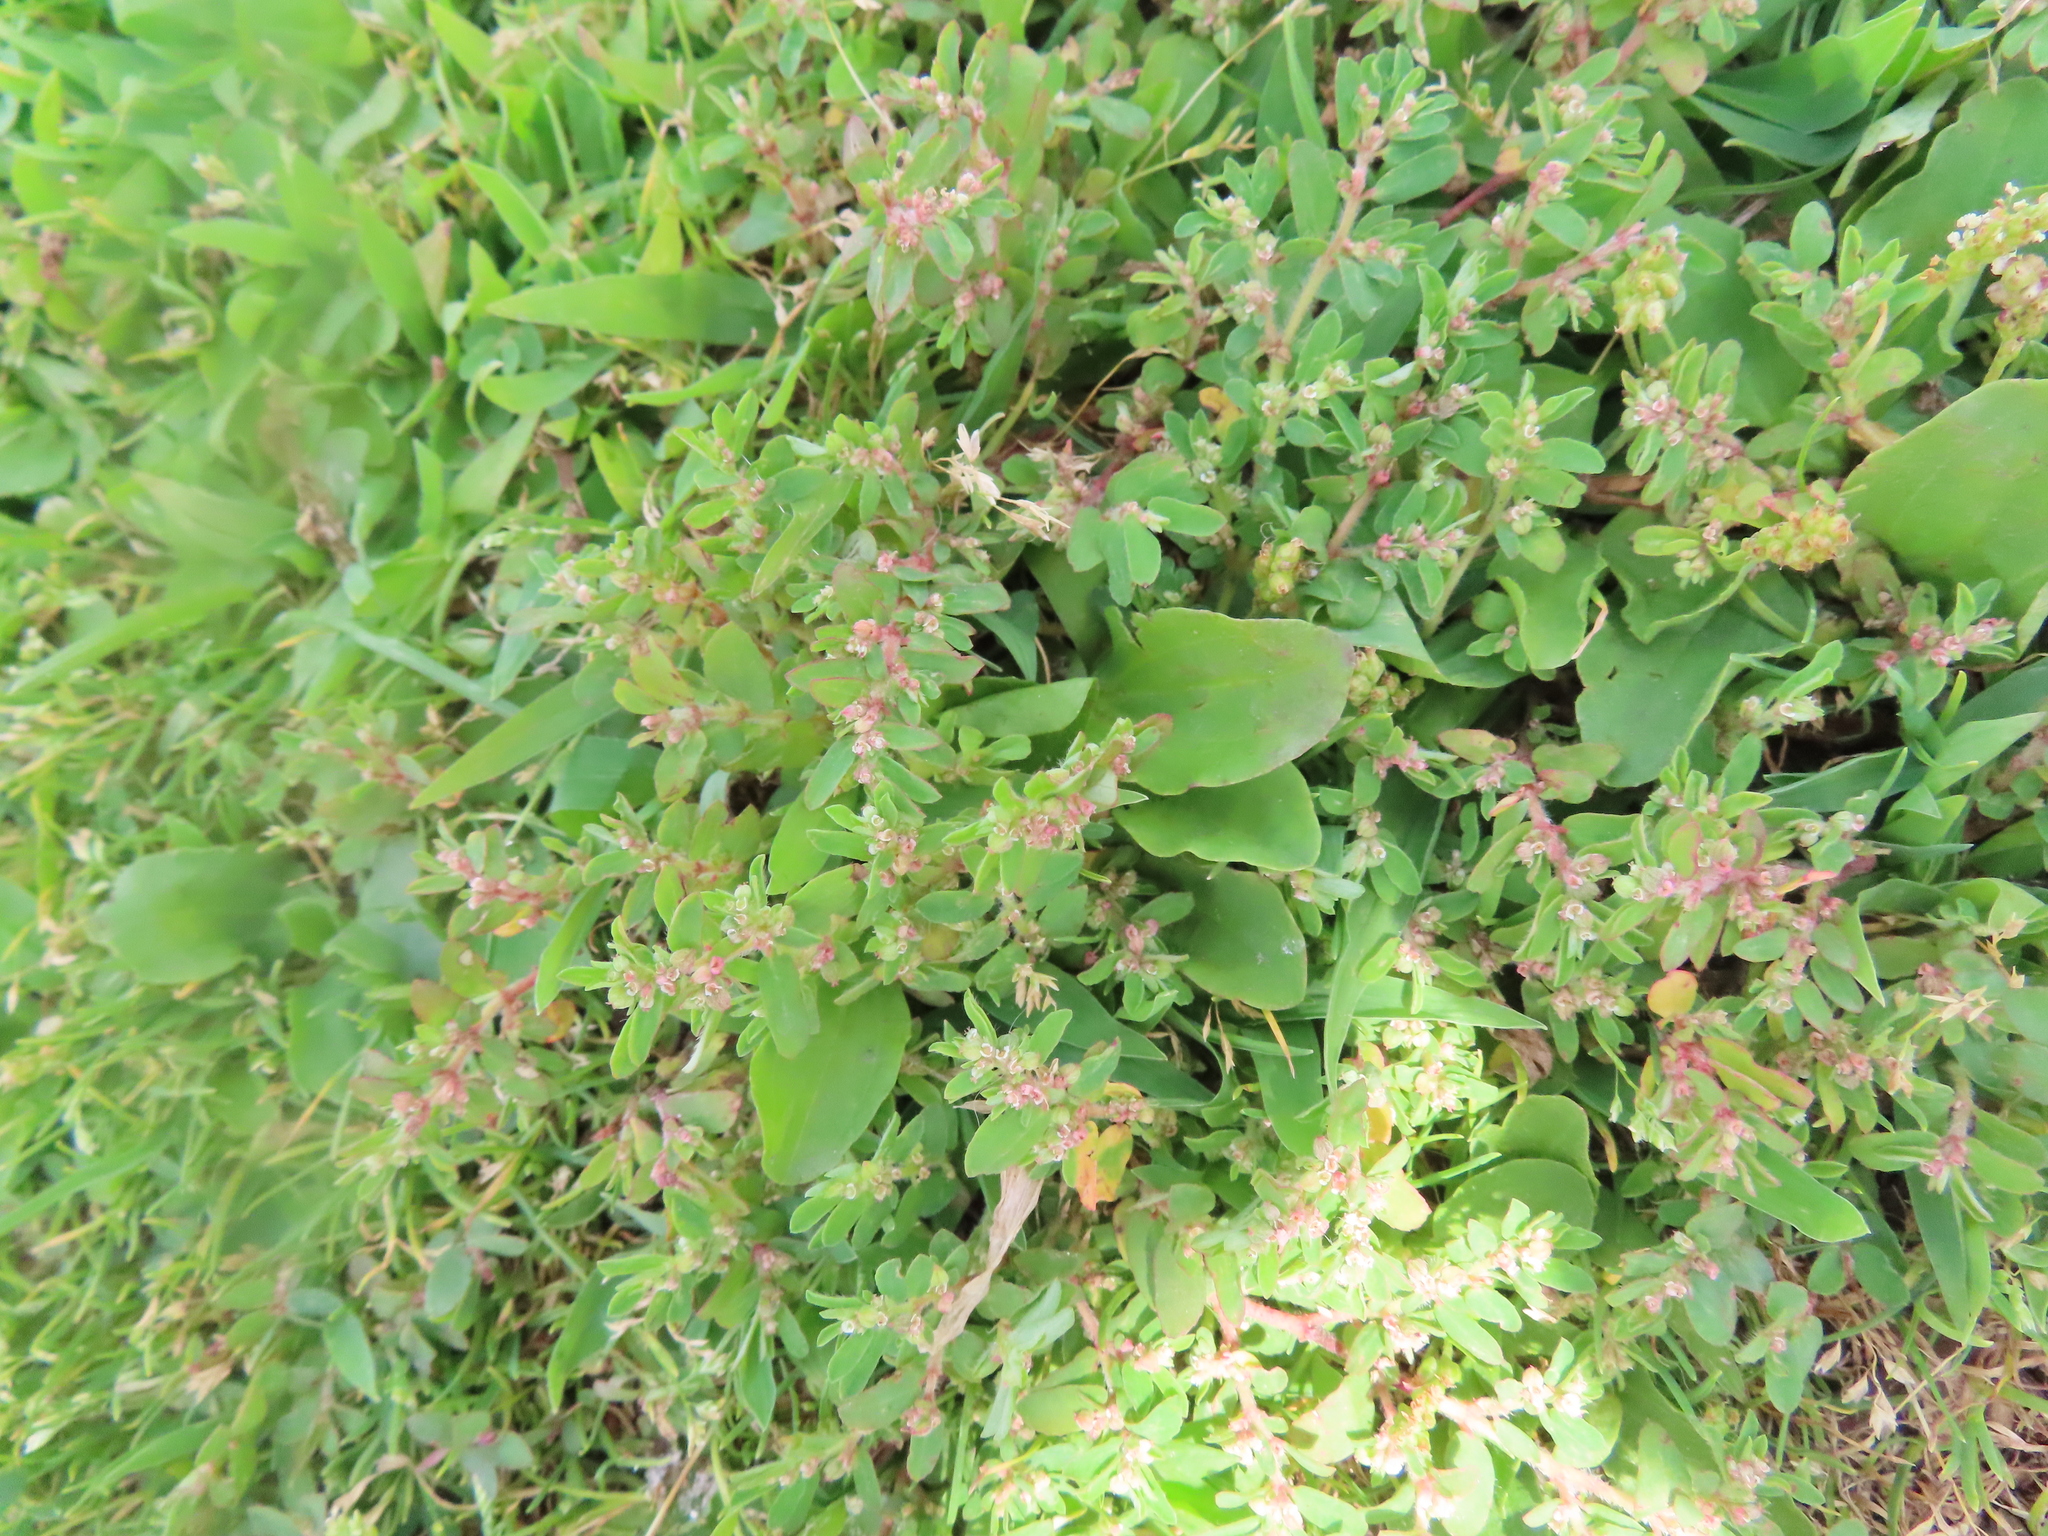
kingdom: Plantae
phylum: Tracheophyta
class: Magnoliopsida
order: Malpighiales
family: Euphorbiaceae
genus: Euphorbia
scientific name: Euphorbia maculata
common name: Spotted spurge
